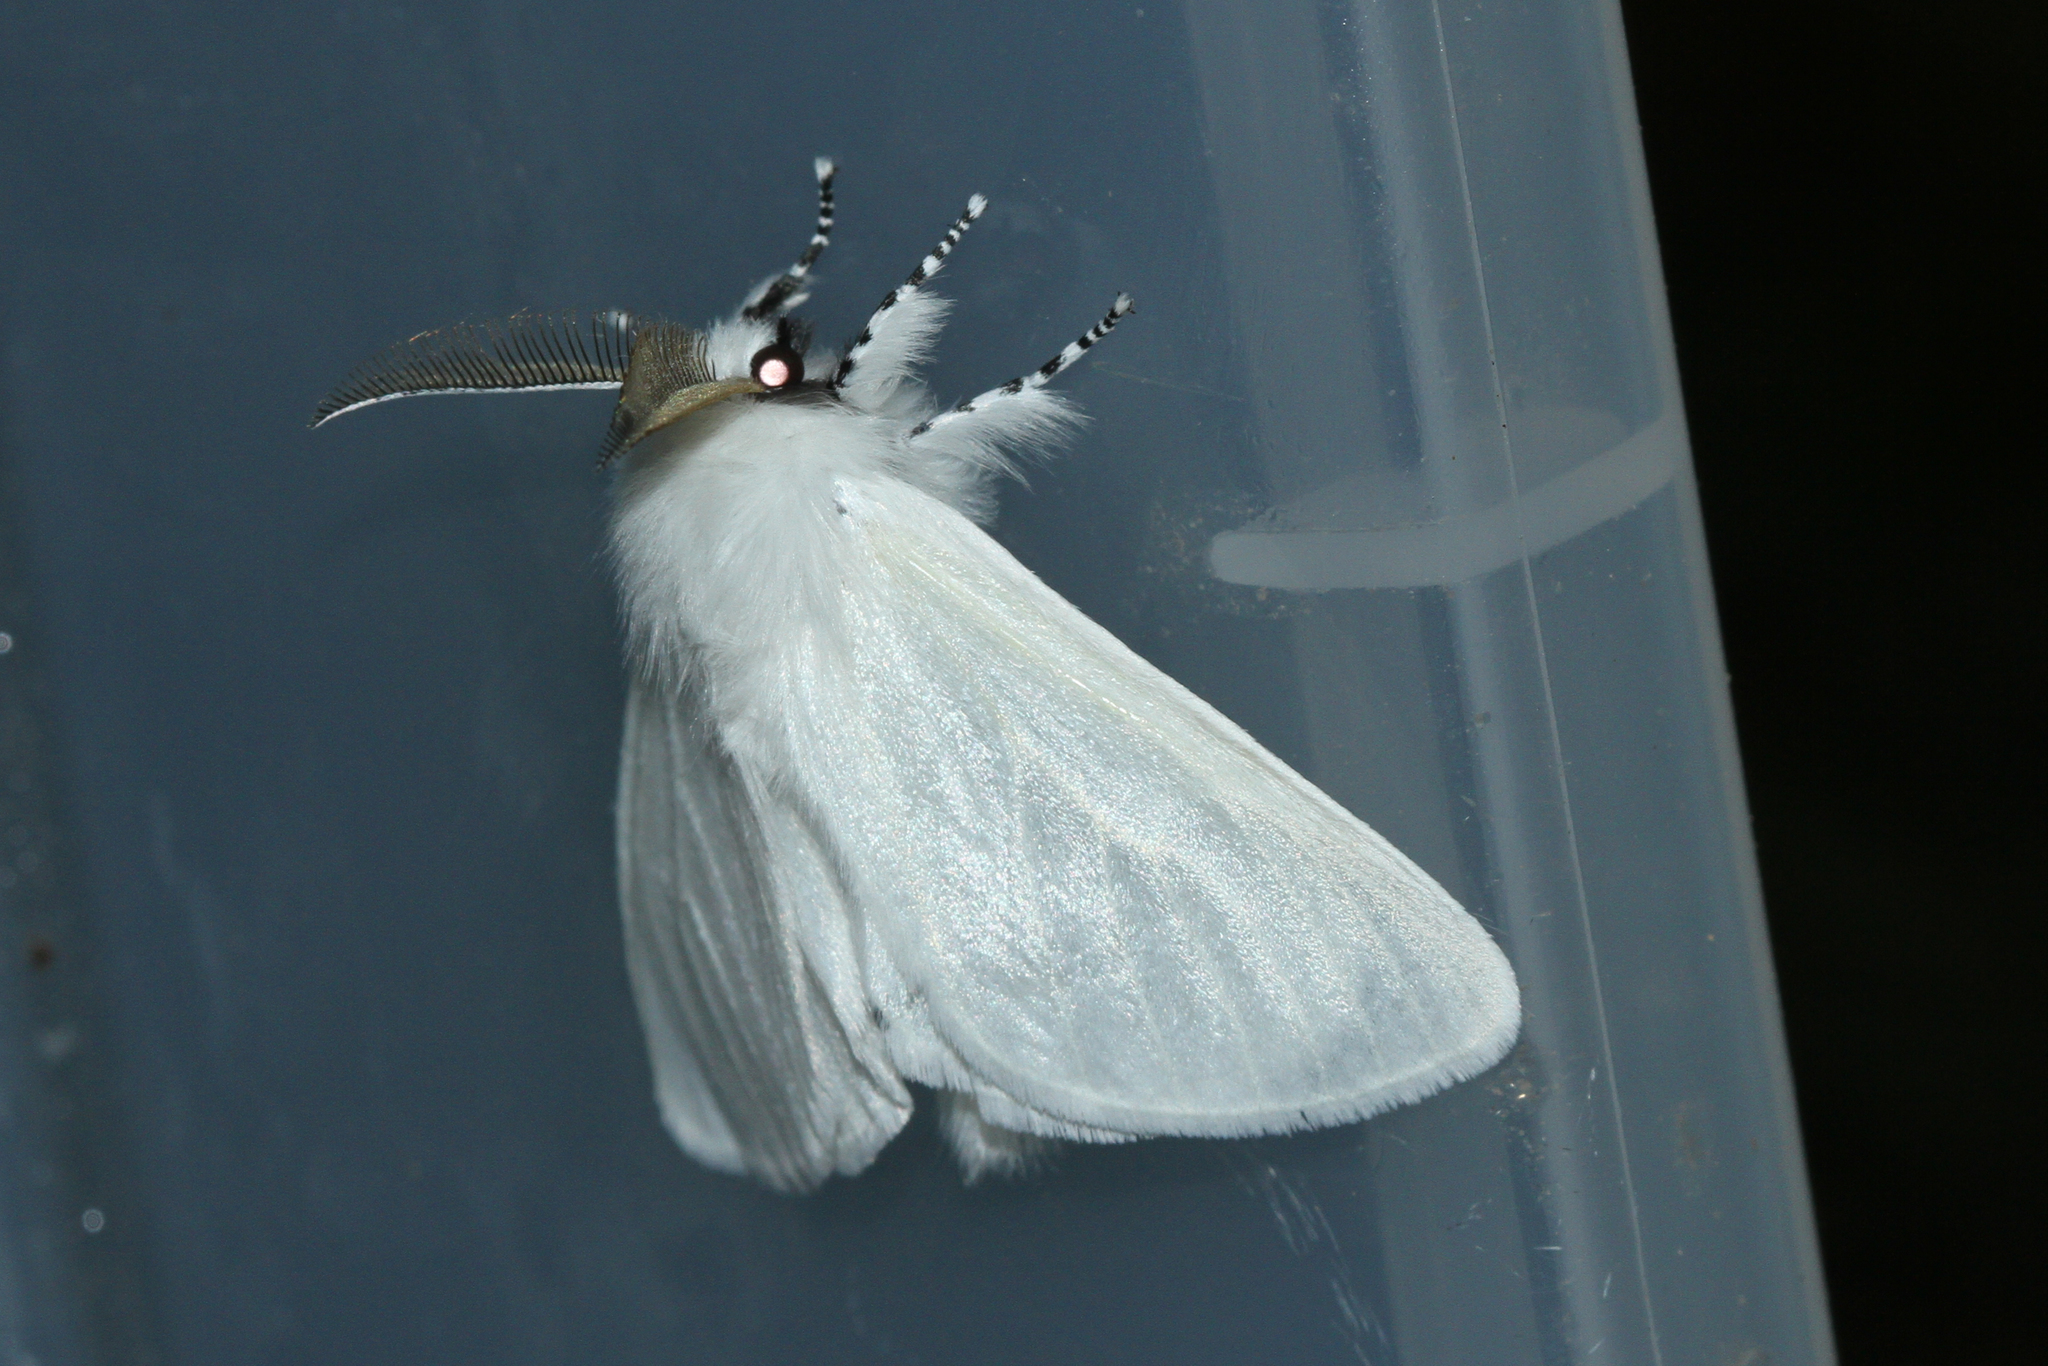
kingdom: Animalia
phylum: Arthropoda
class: Insecta
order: Lepidoptera
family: Erebidae
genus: Leucoma
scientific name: Leucoma salicis
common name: White satin moth
